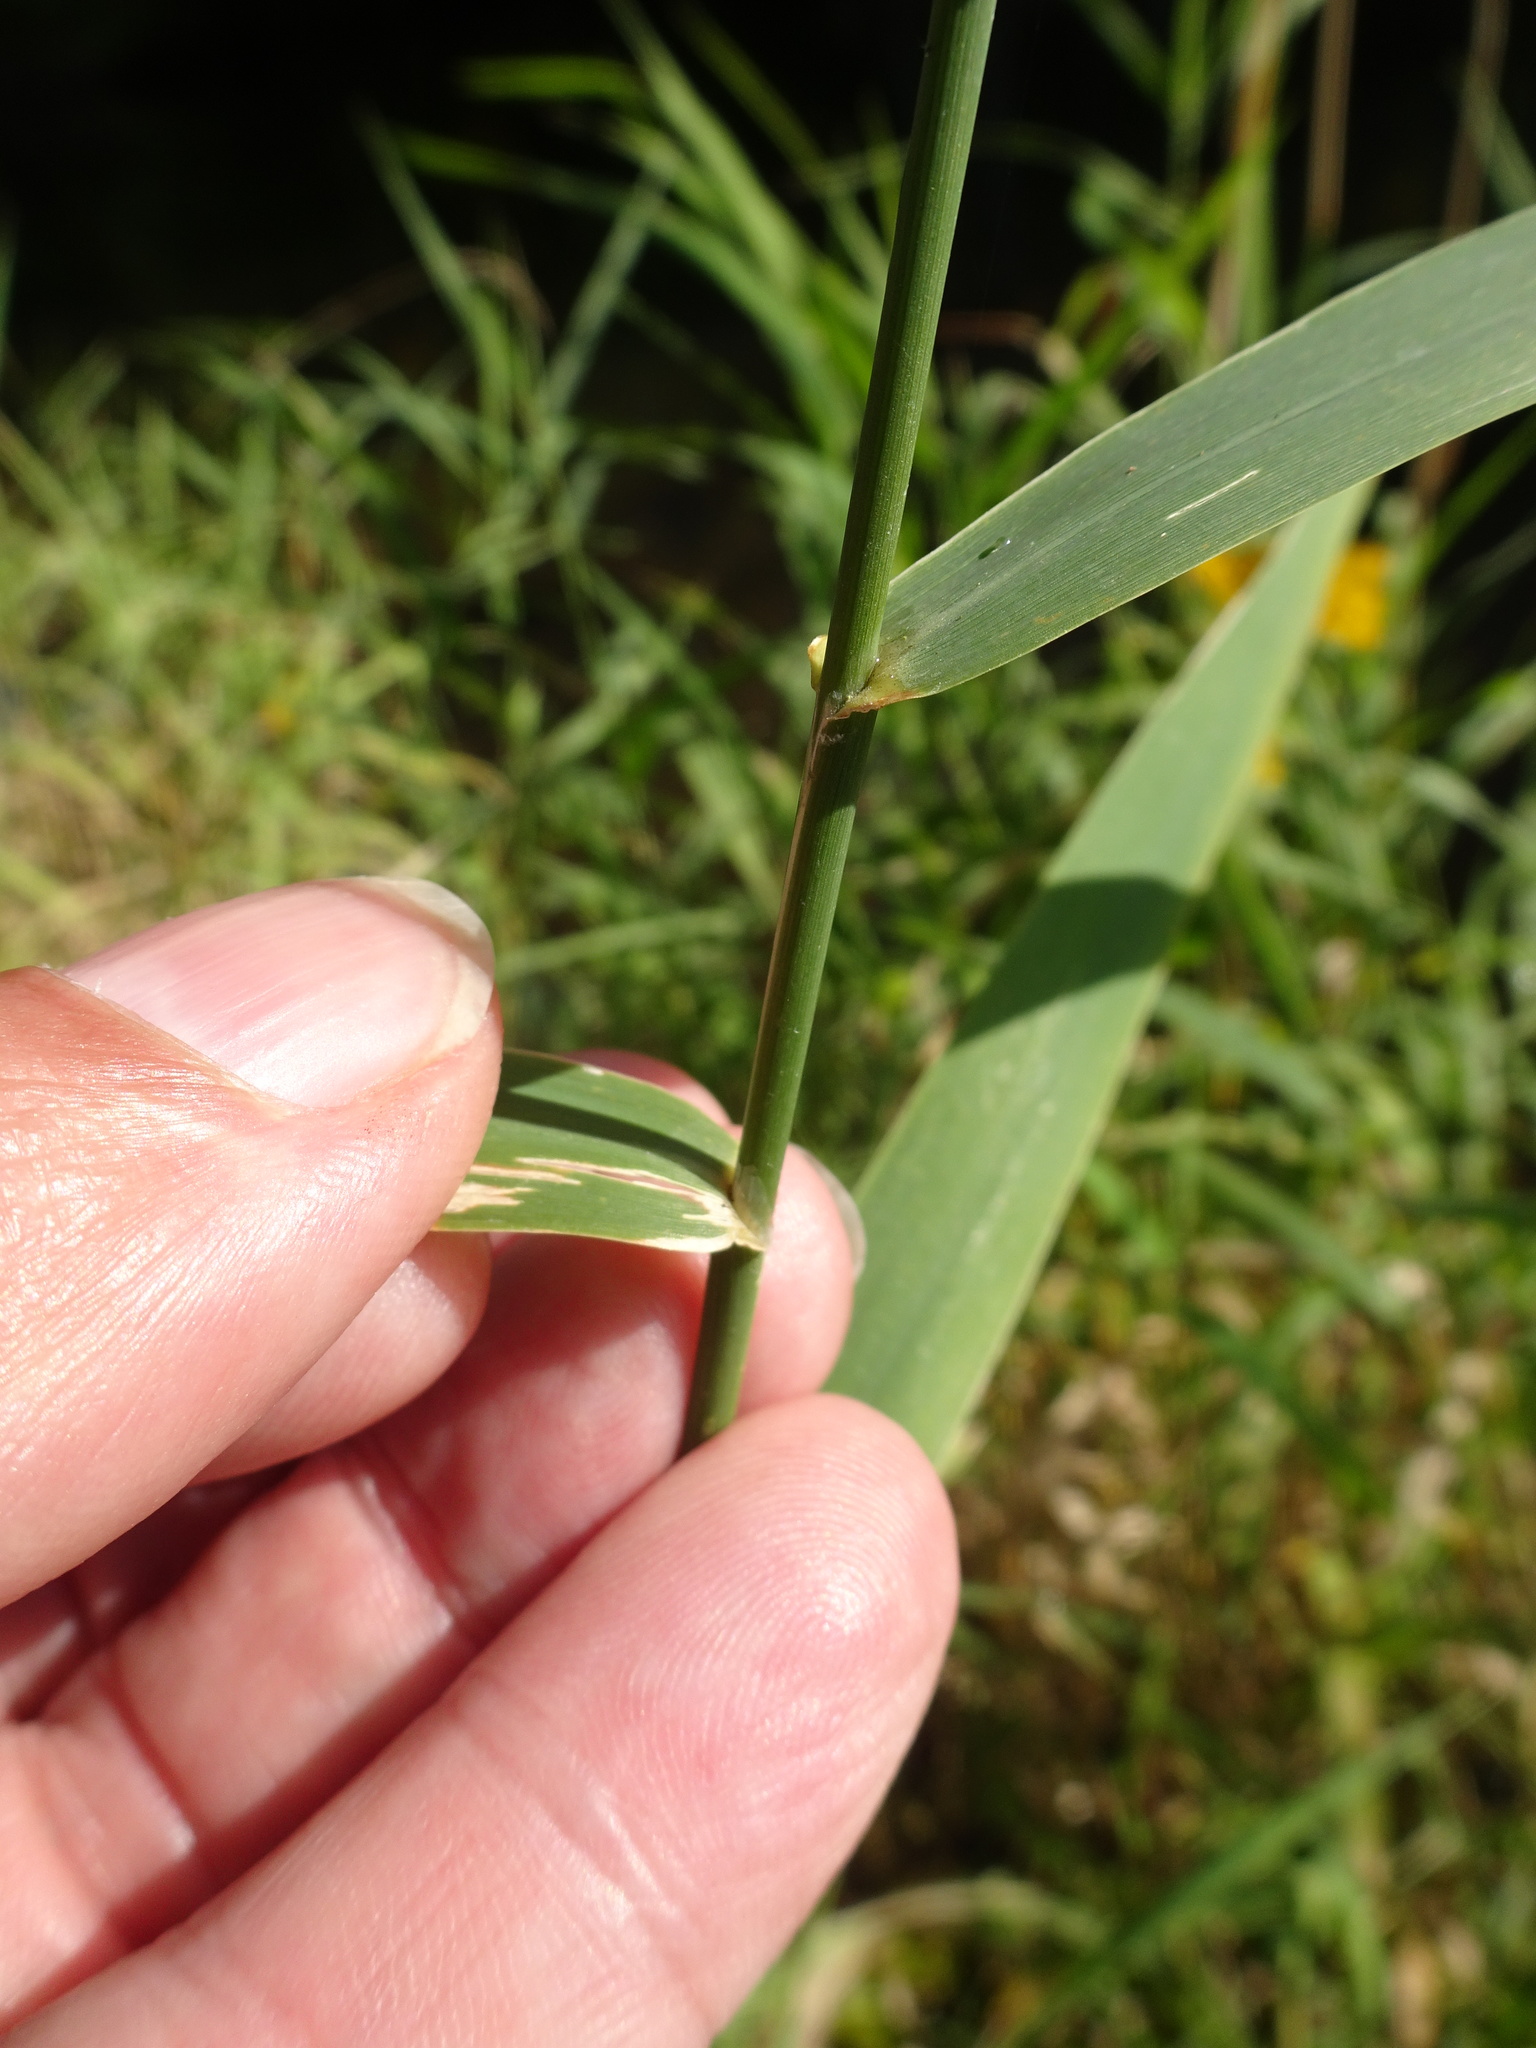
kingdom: Plantae
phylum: Tracheophyta
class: Liliopsida
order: Poales
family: Poaceae
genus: Phalaris
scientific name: Phalaris arundinacea
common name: Reed canary-grass
